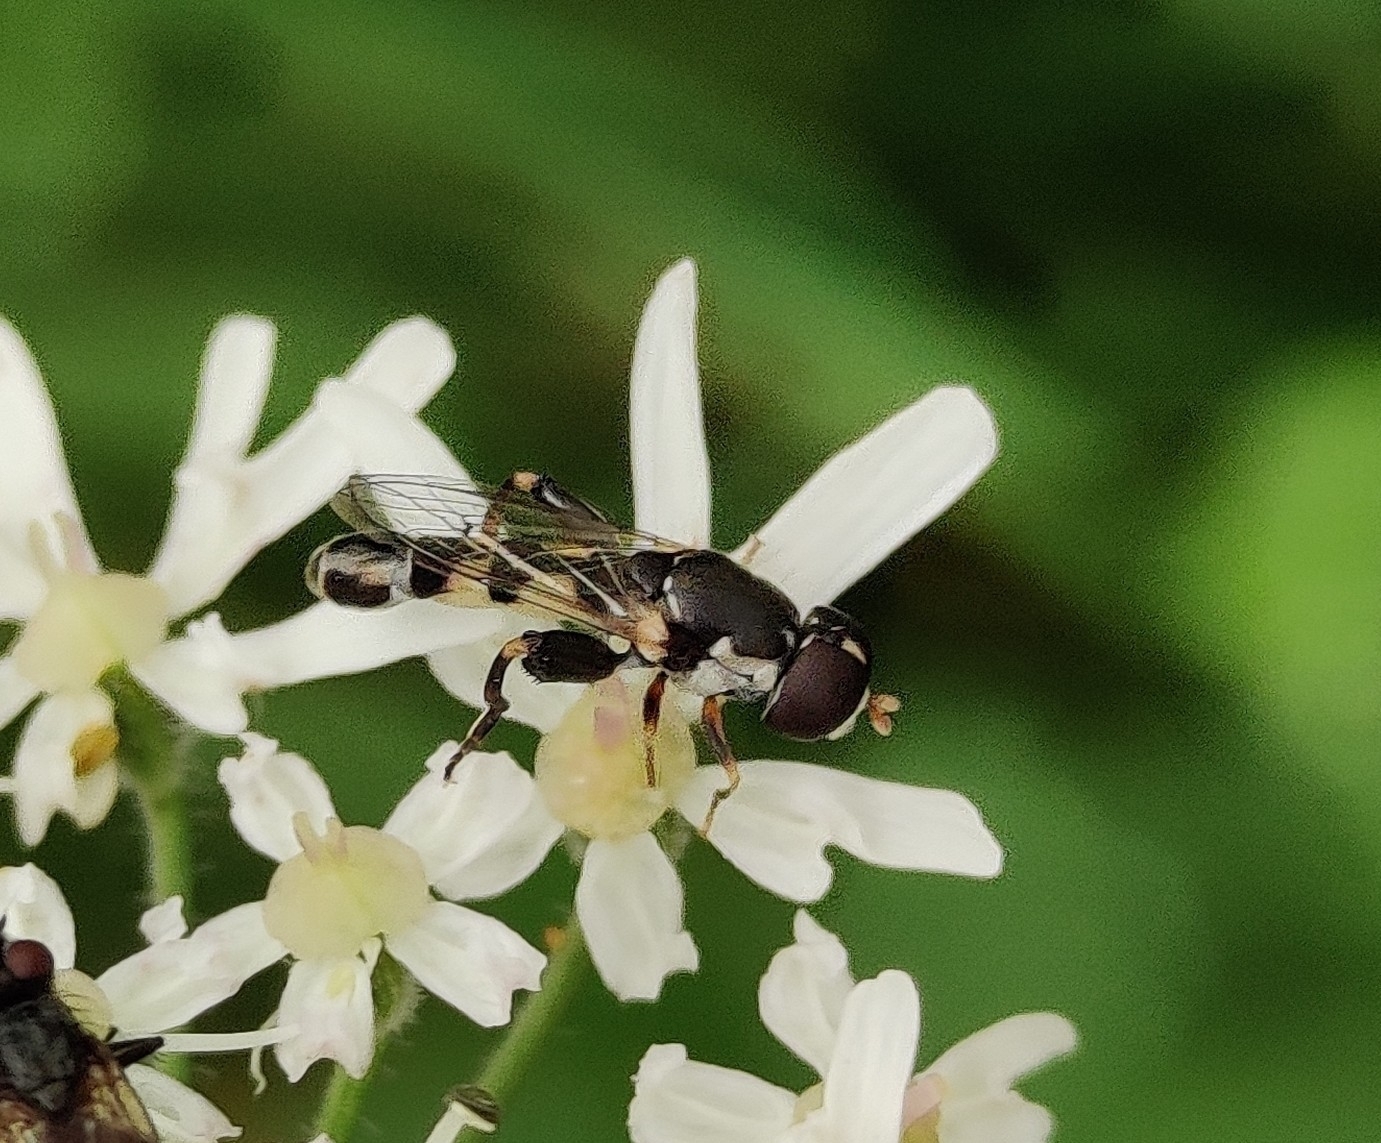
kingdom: Animalia
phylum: Arthropoda
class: Insecta
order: Diptera
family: Syrphidae
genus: Syritta
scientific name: Syritta pipiens
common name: Hover fly
